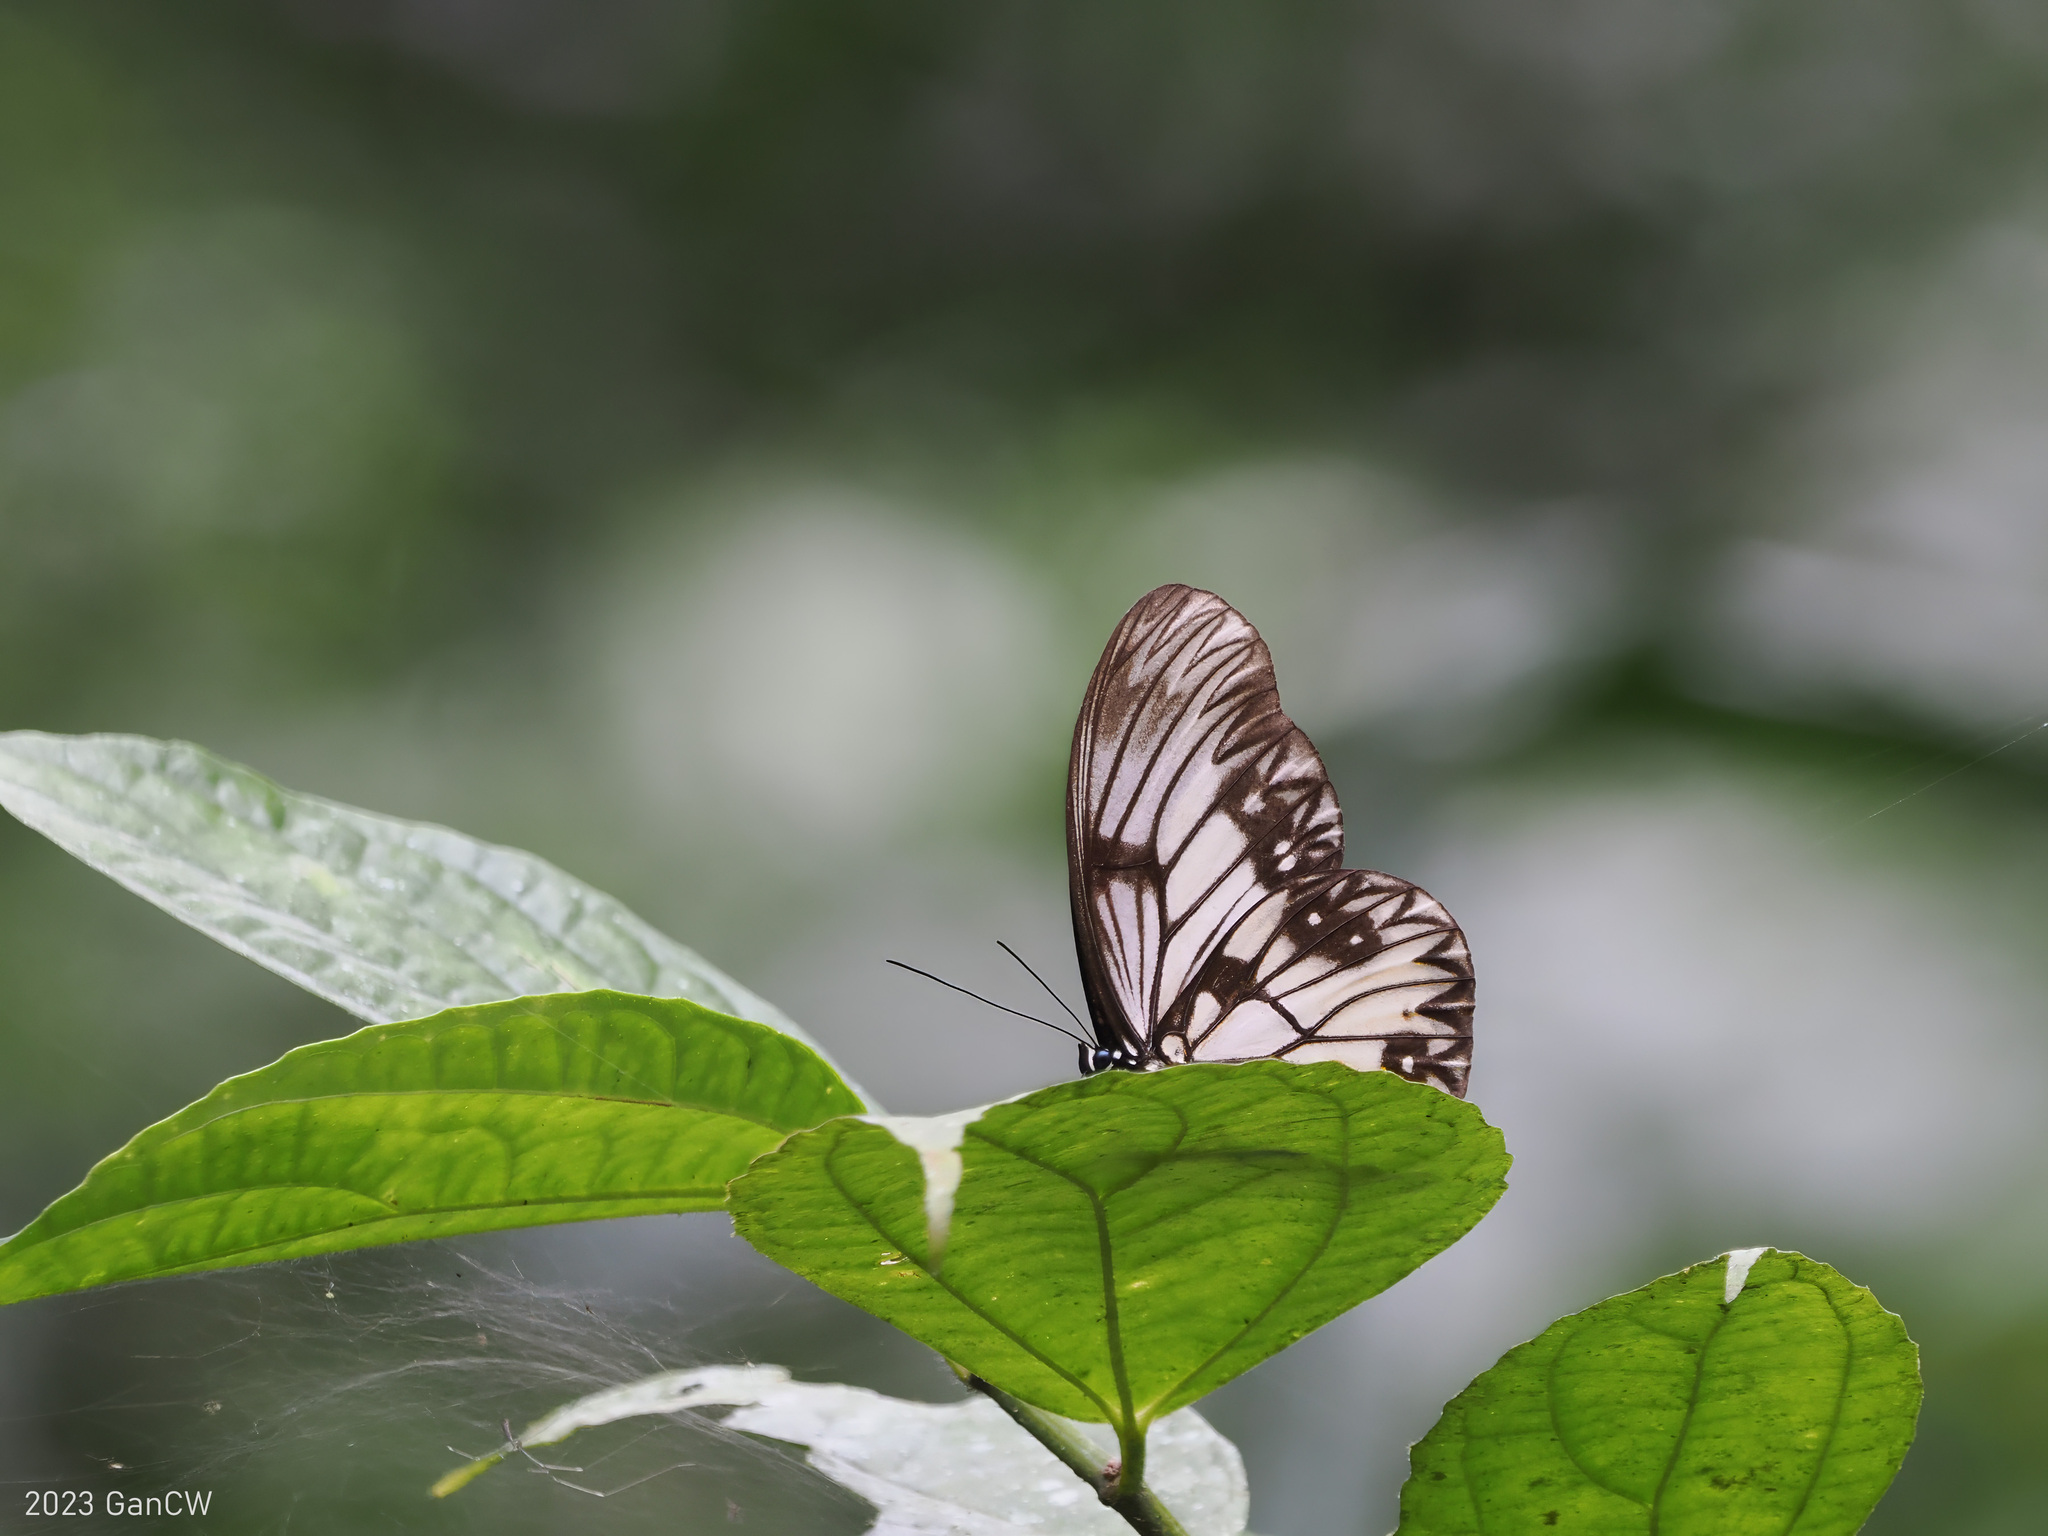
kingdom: Animalia
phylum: Arthropoda
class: Insecta
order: Lepidoptera
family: Nymphalidae
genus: Zethera
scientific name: Zethera incerta
